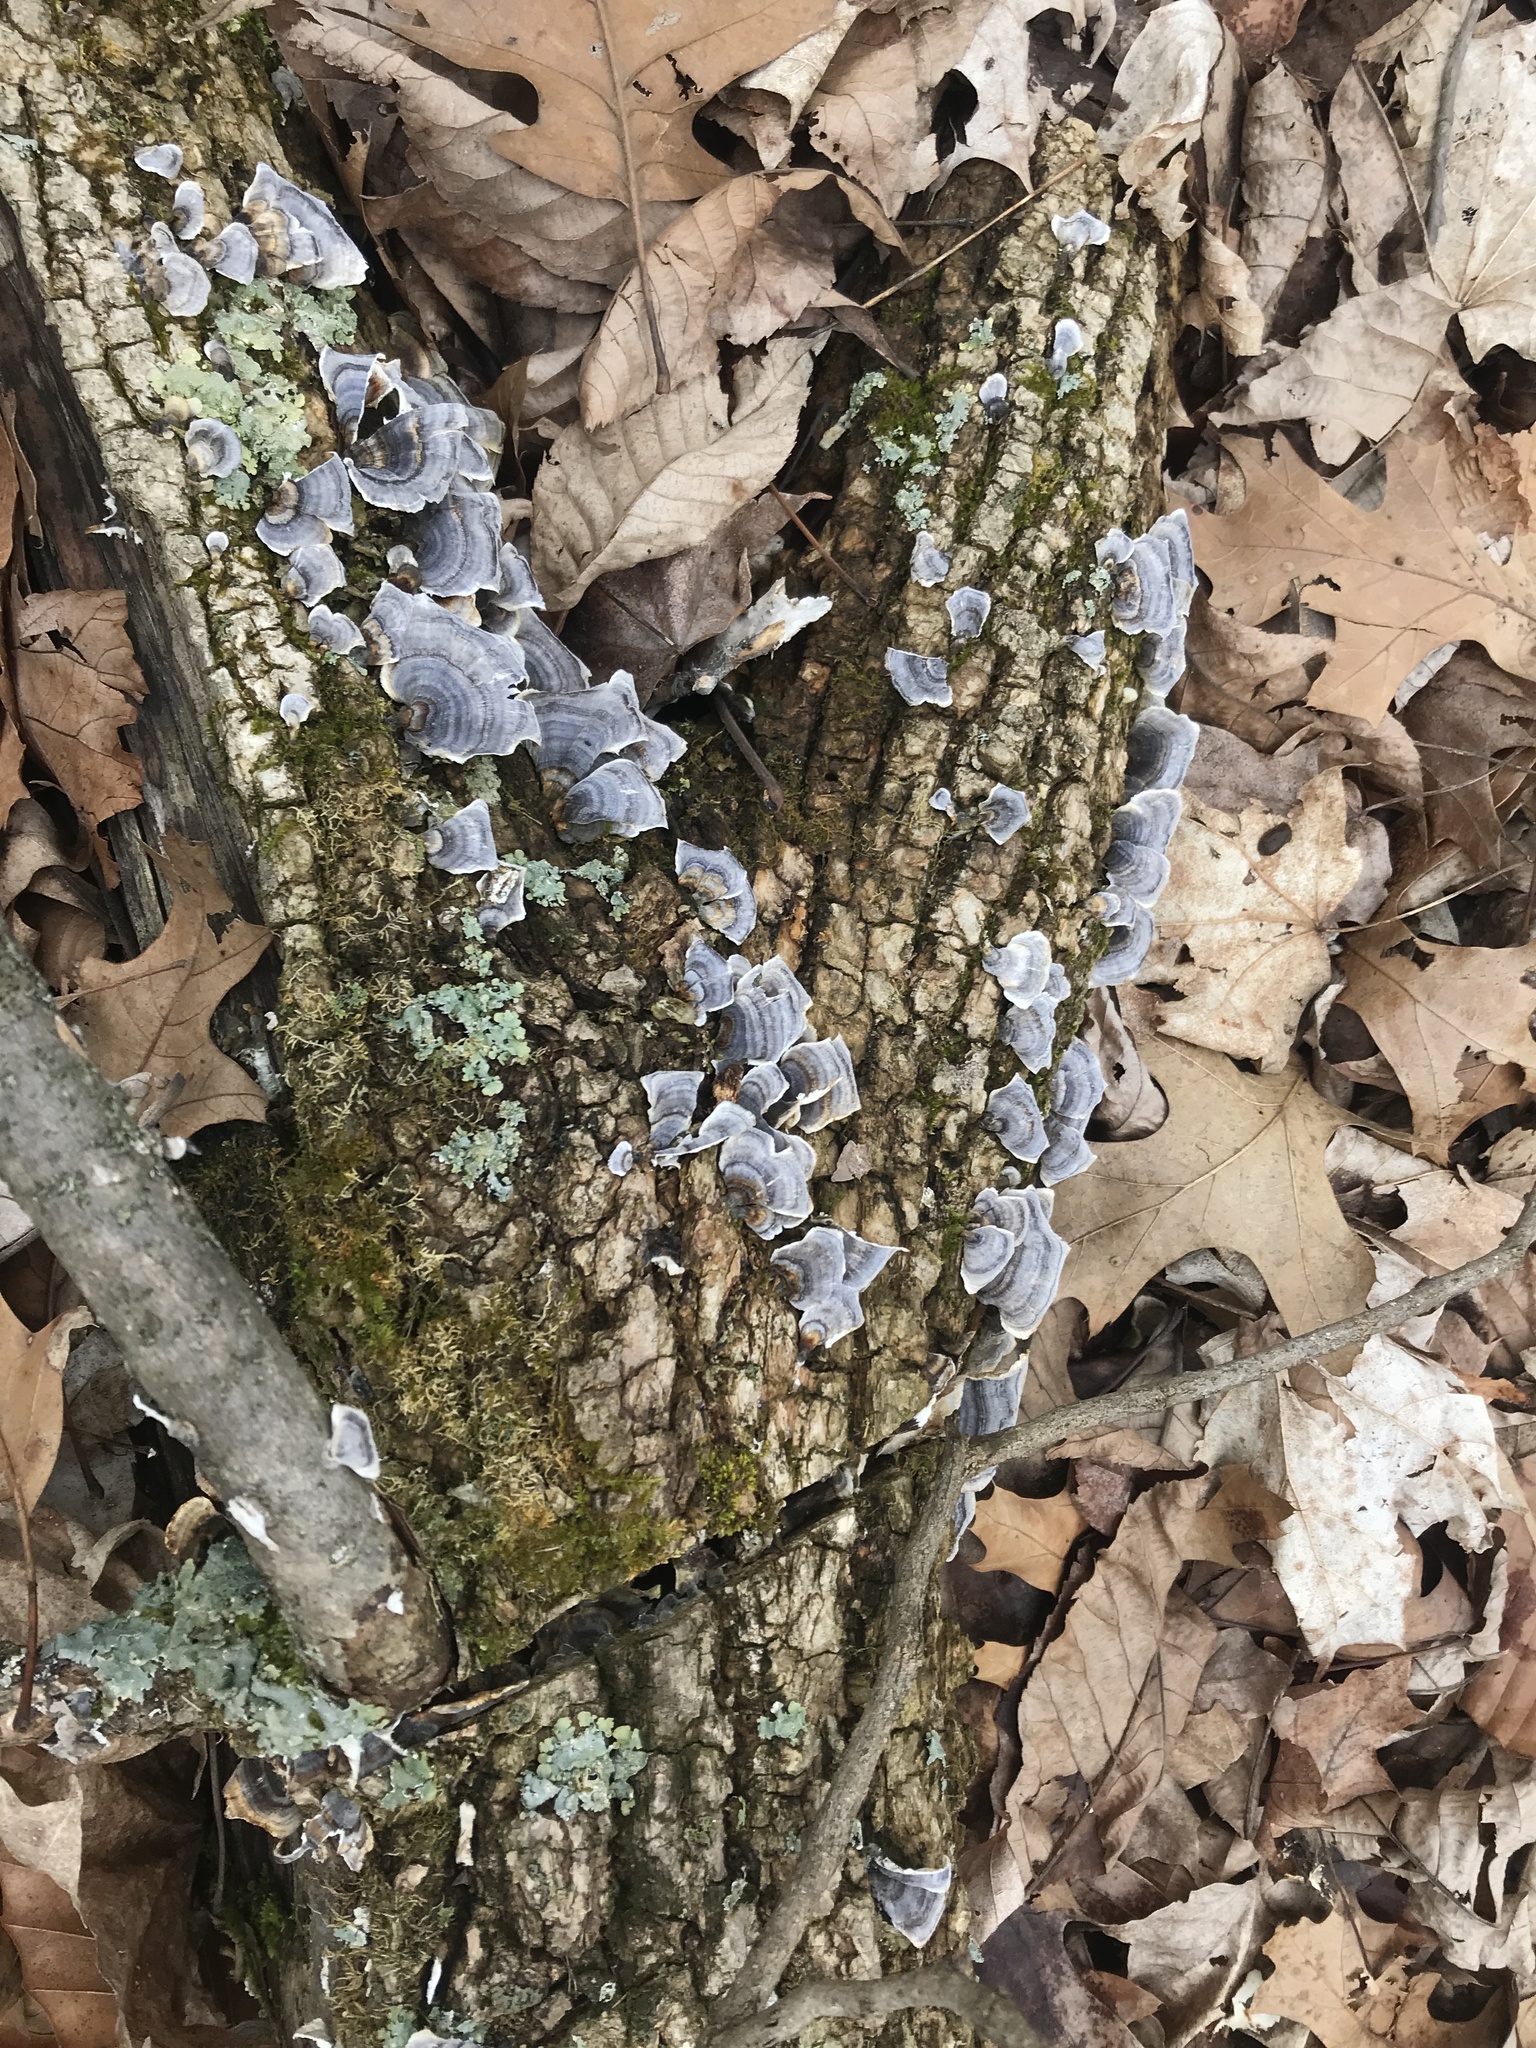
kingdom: Fungi
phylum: Basidiomycota
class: Agaricomycetes
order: Polyporales
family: Polyporaceae
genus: Trametes
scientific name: Trametes versicolor
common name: Turkeytail
